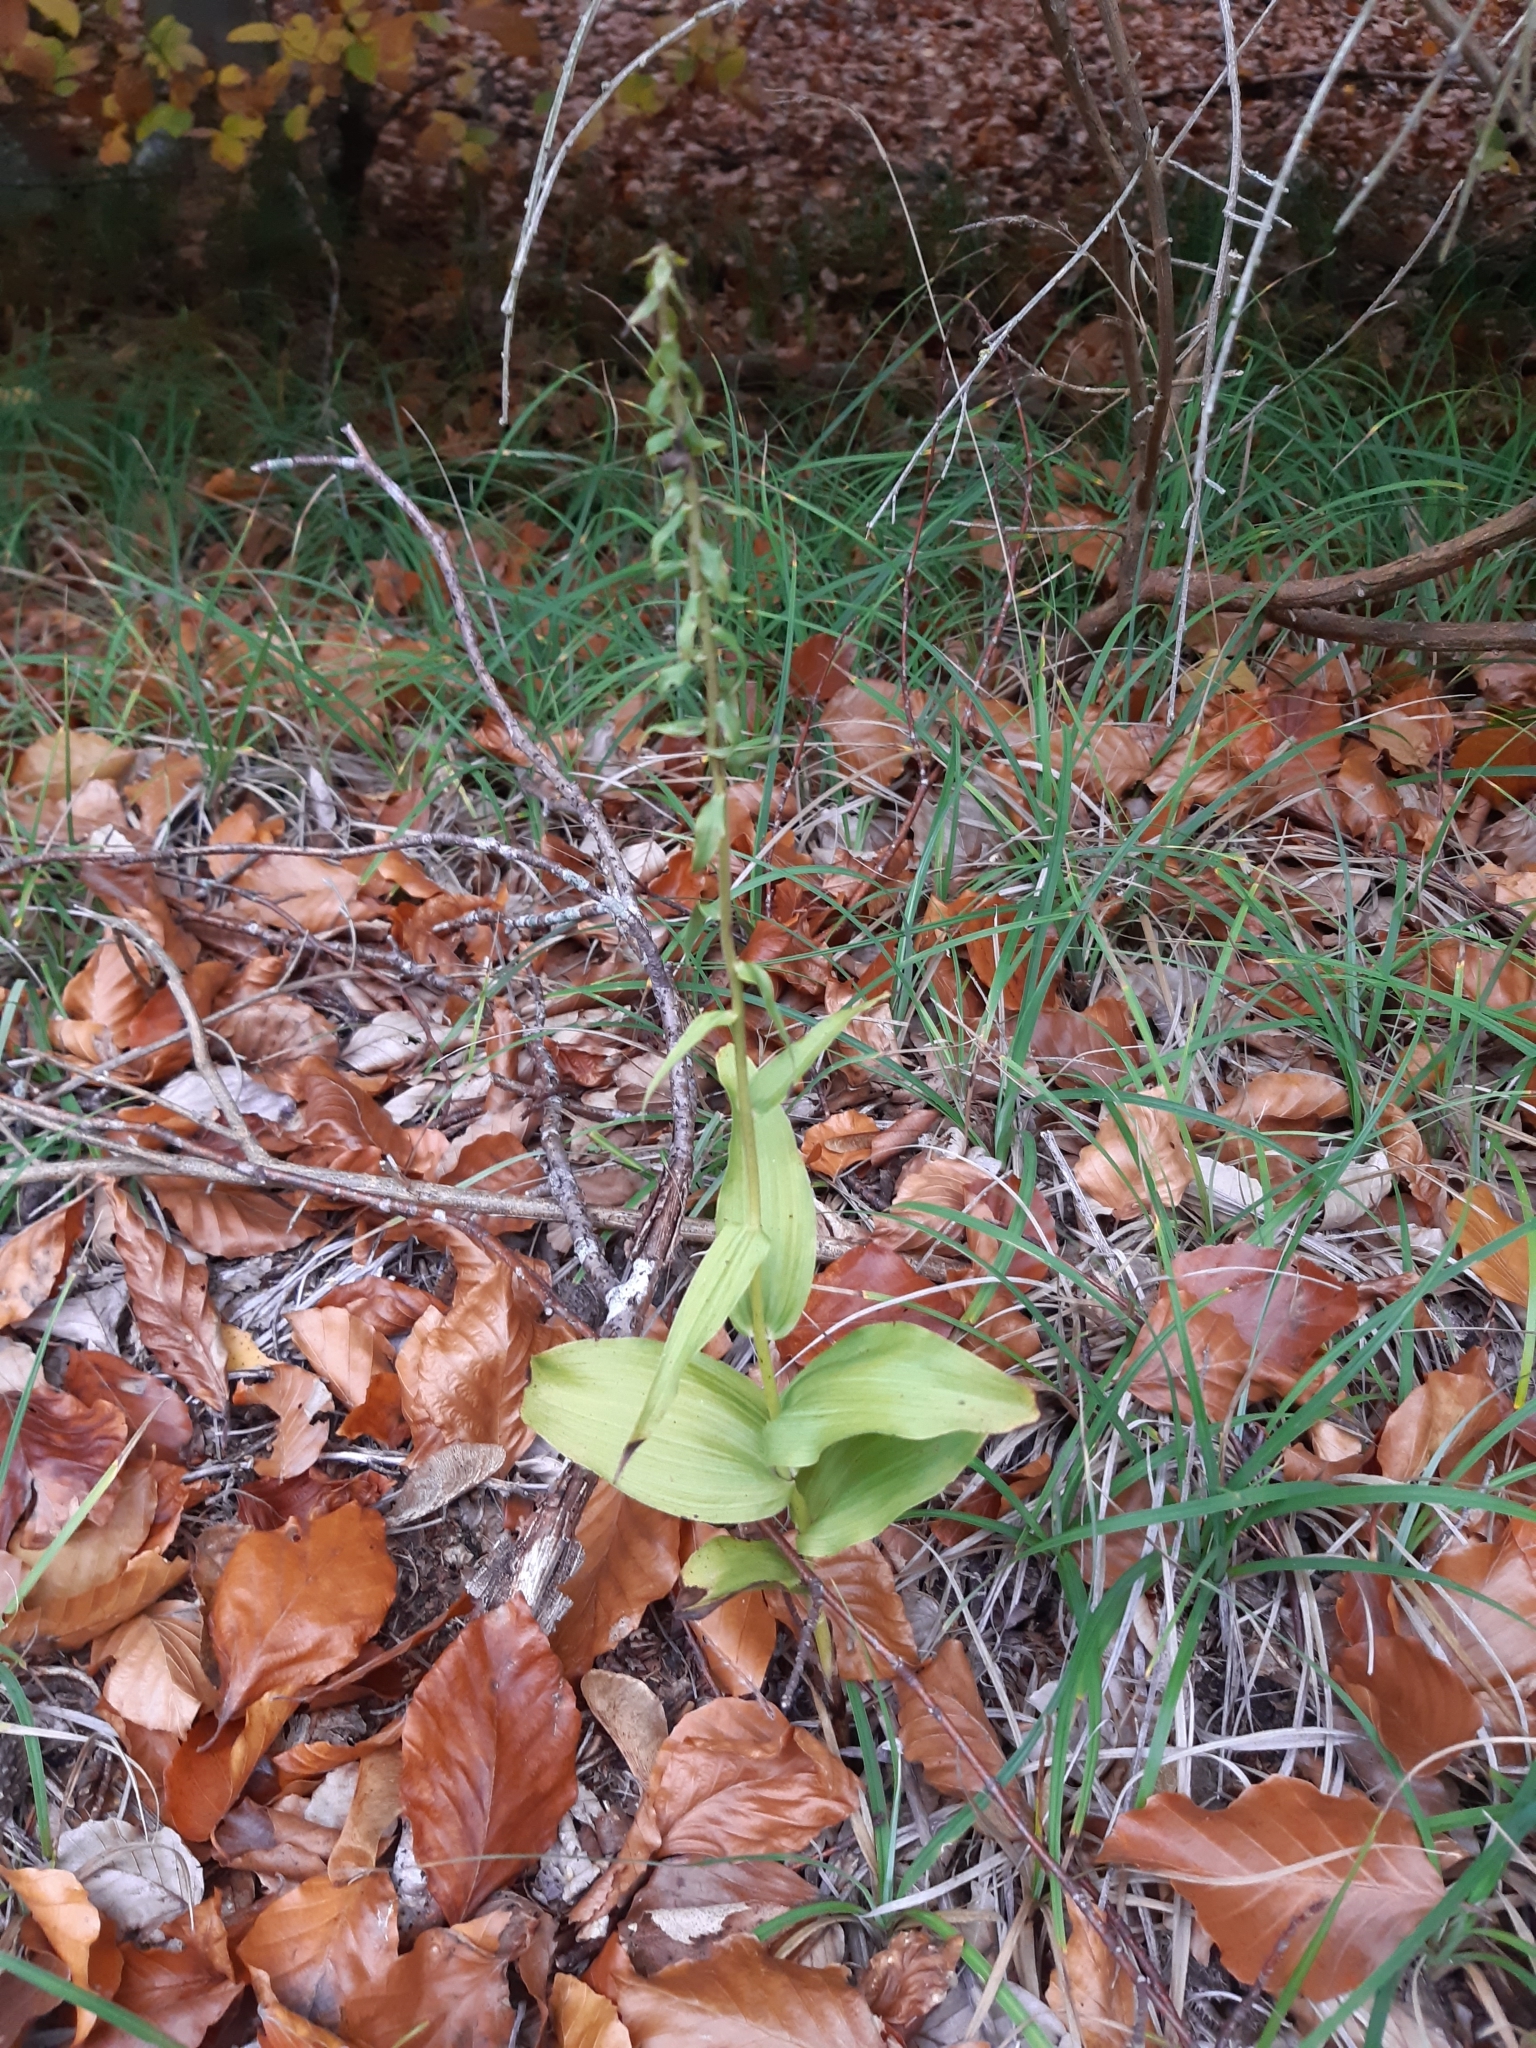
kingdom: Plantae
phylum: Tracheophyta
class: Liliopsida
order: Asparagales
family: Orchidaceae
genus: Epipactis
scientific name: Epipactis helleborine
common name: Broad-leaved helleborine
